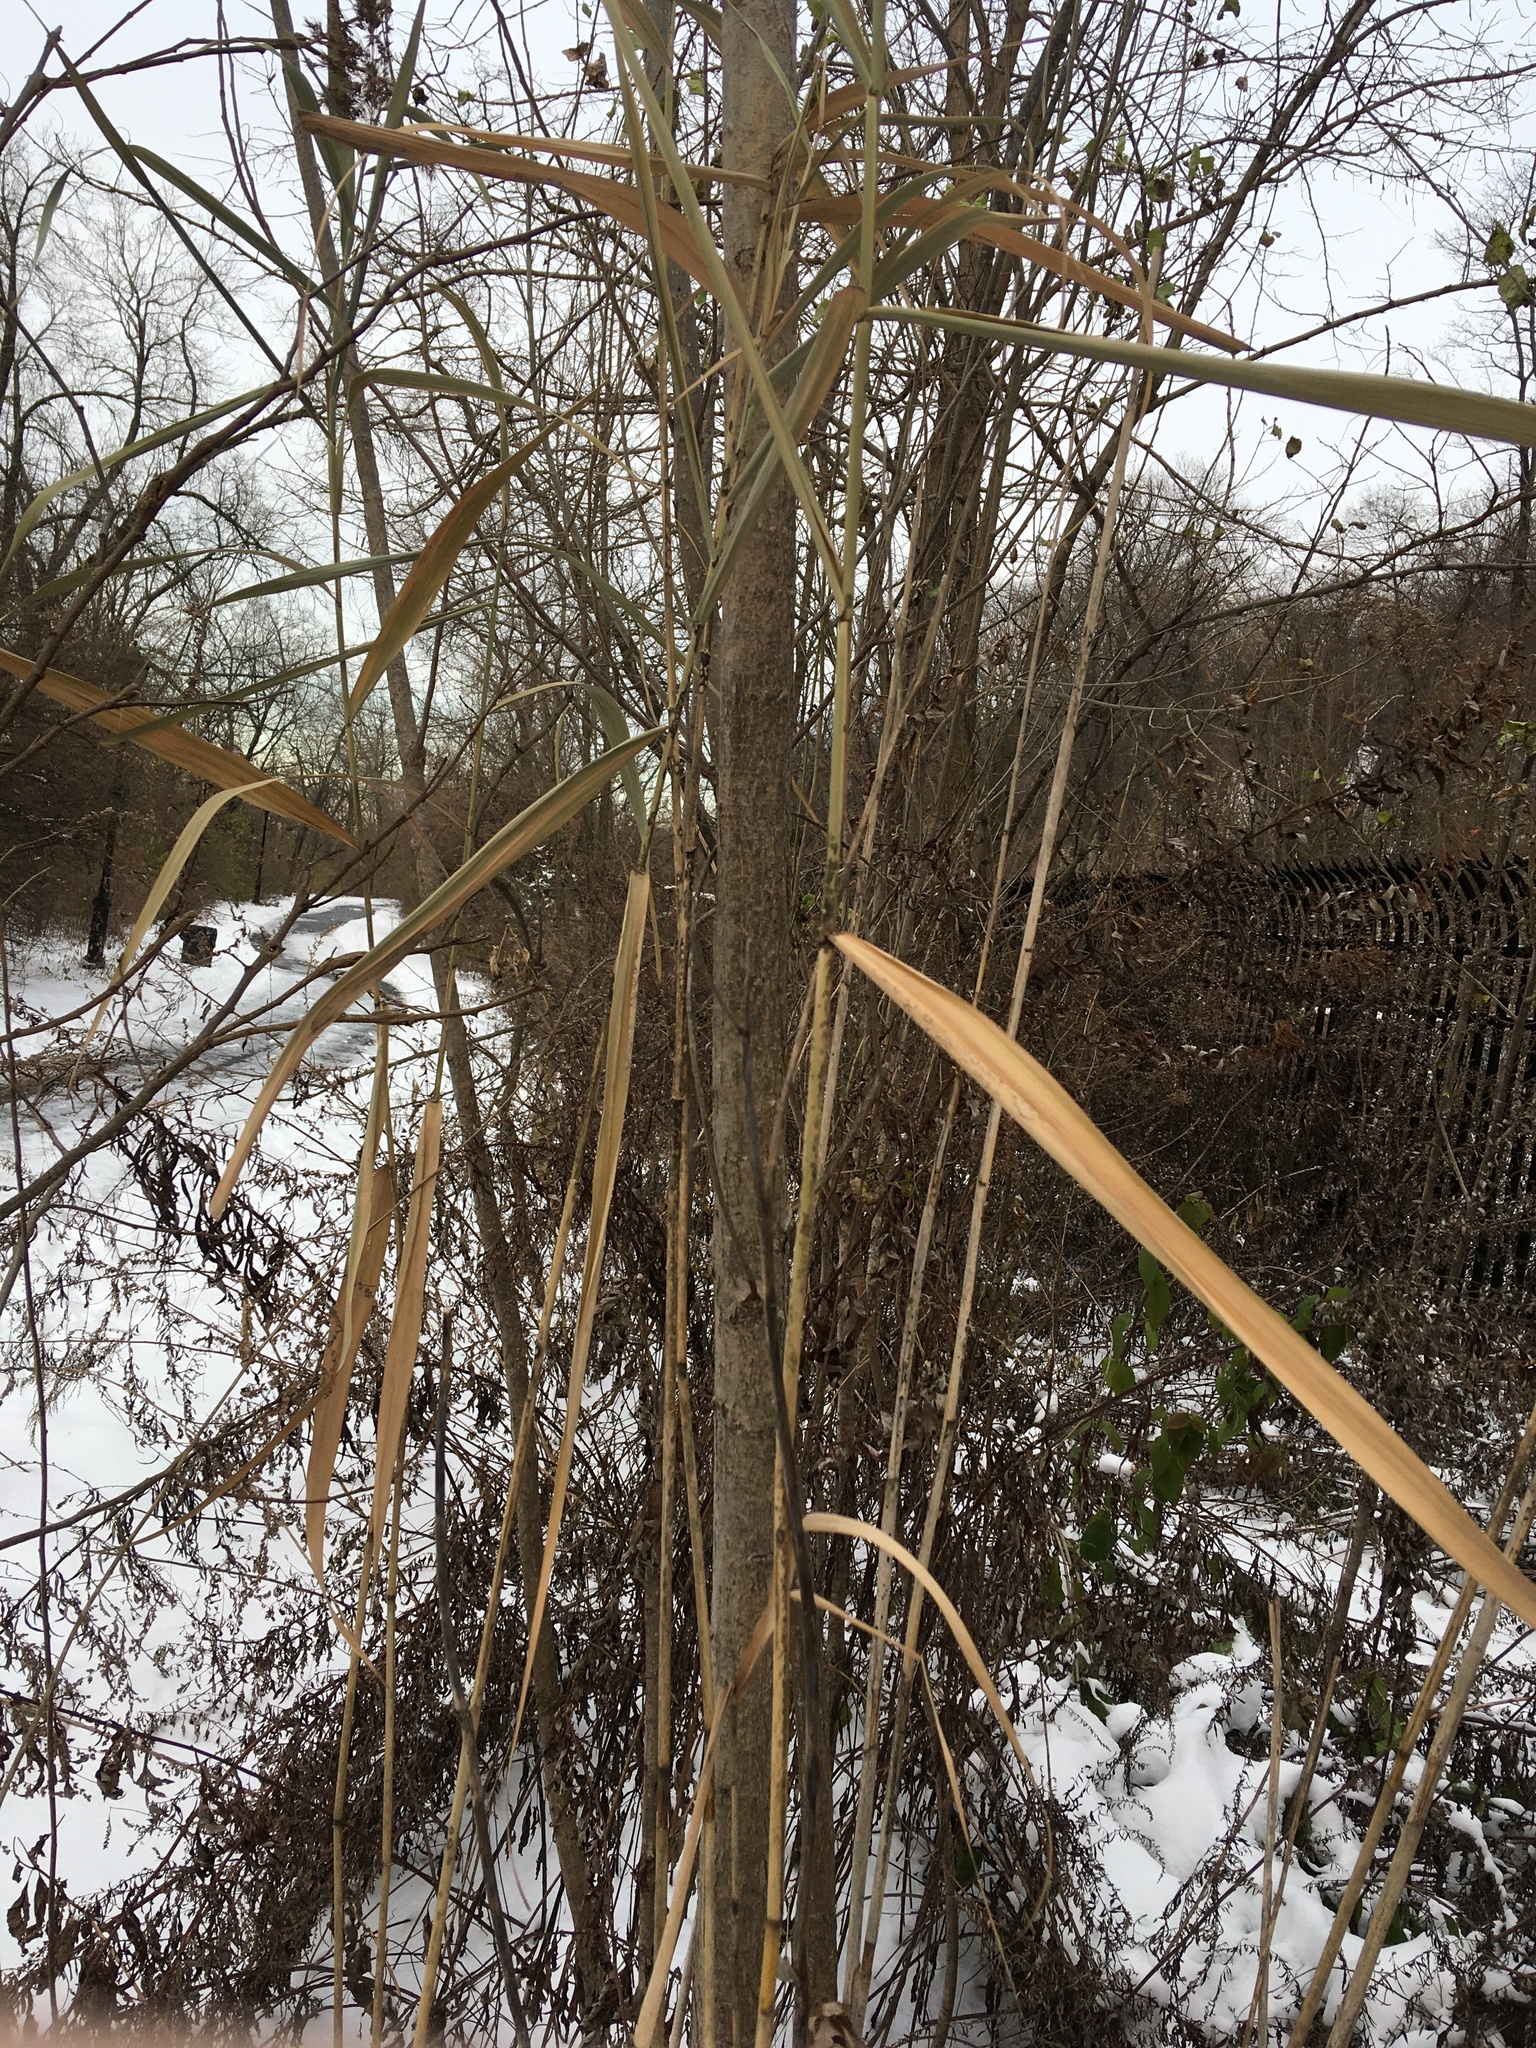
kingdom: Plantae
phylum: Tracheophyta
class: Liliopsida
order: Poales
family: Poaceae
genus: Phragmites
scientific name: Phragmites australis
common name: Common reed
